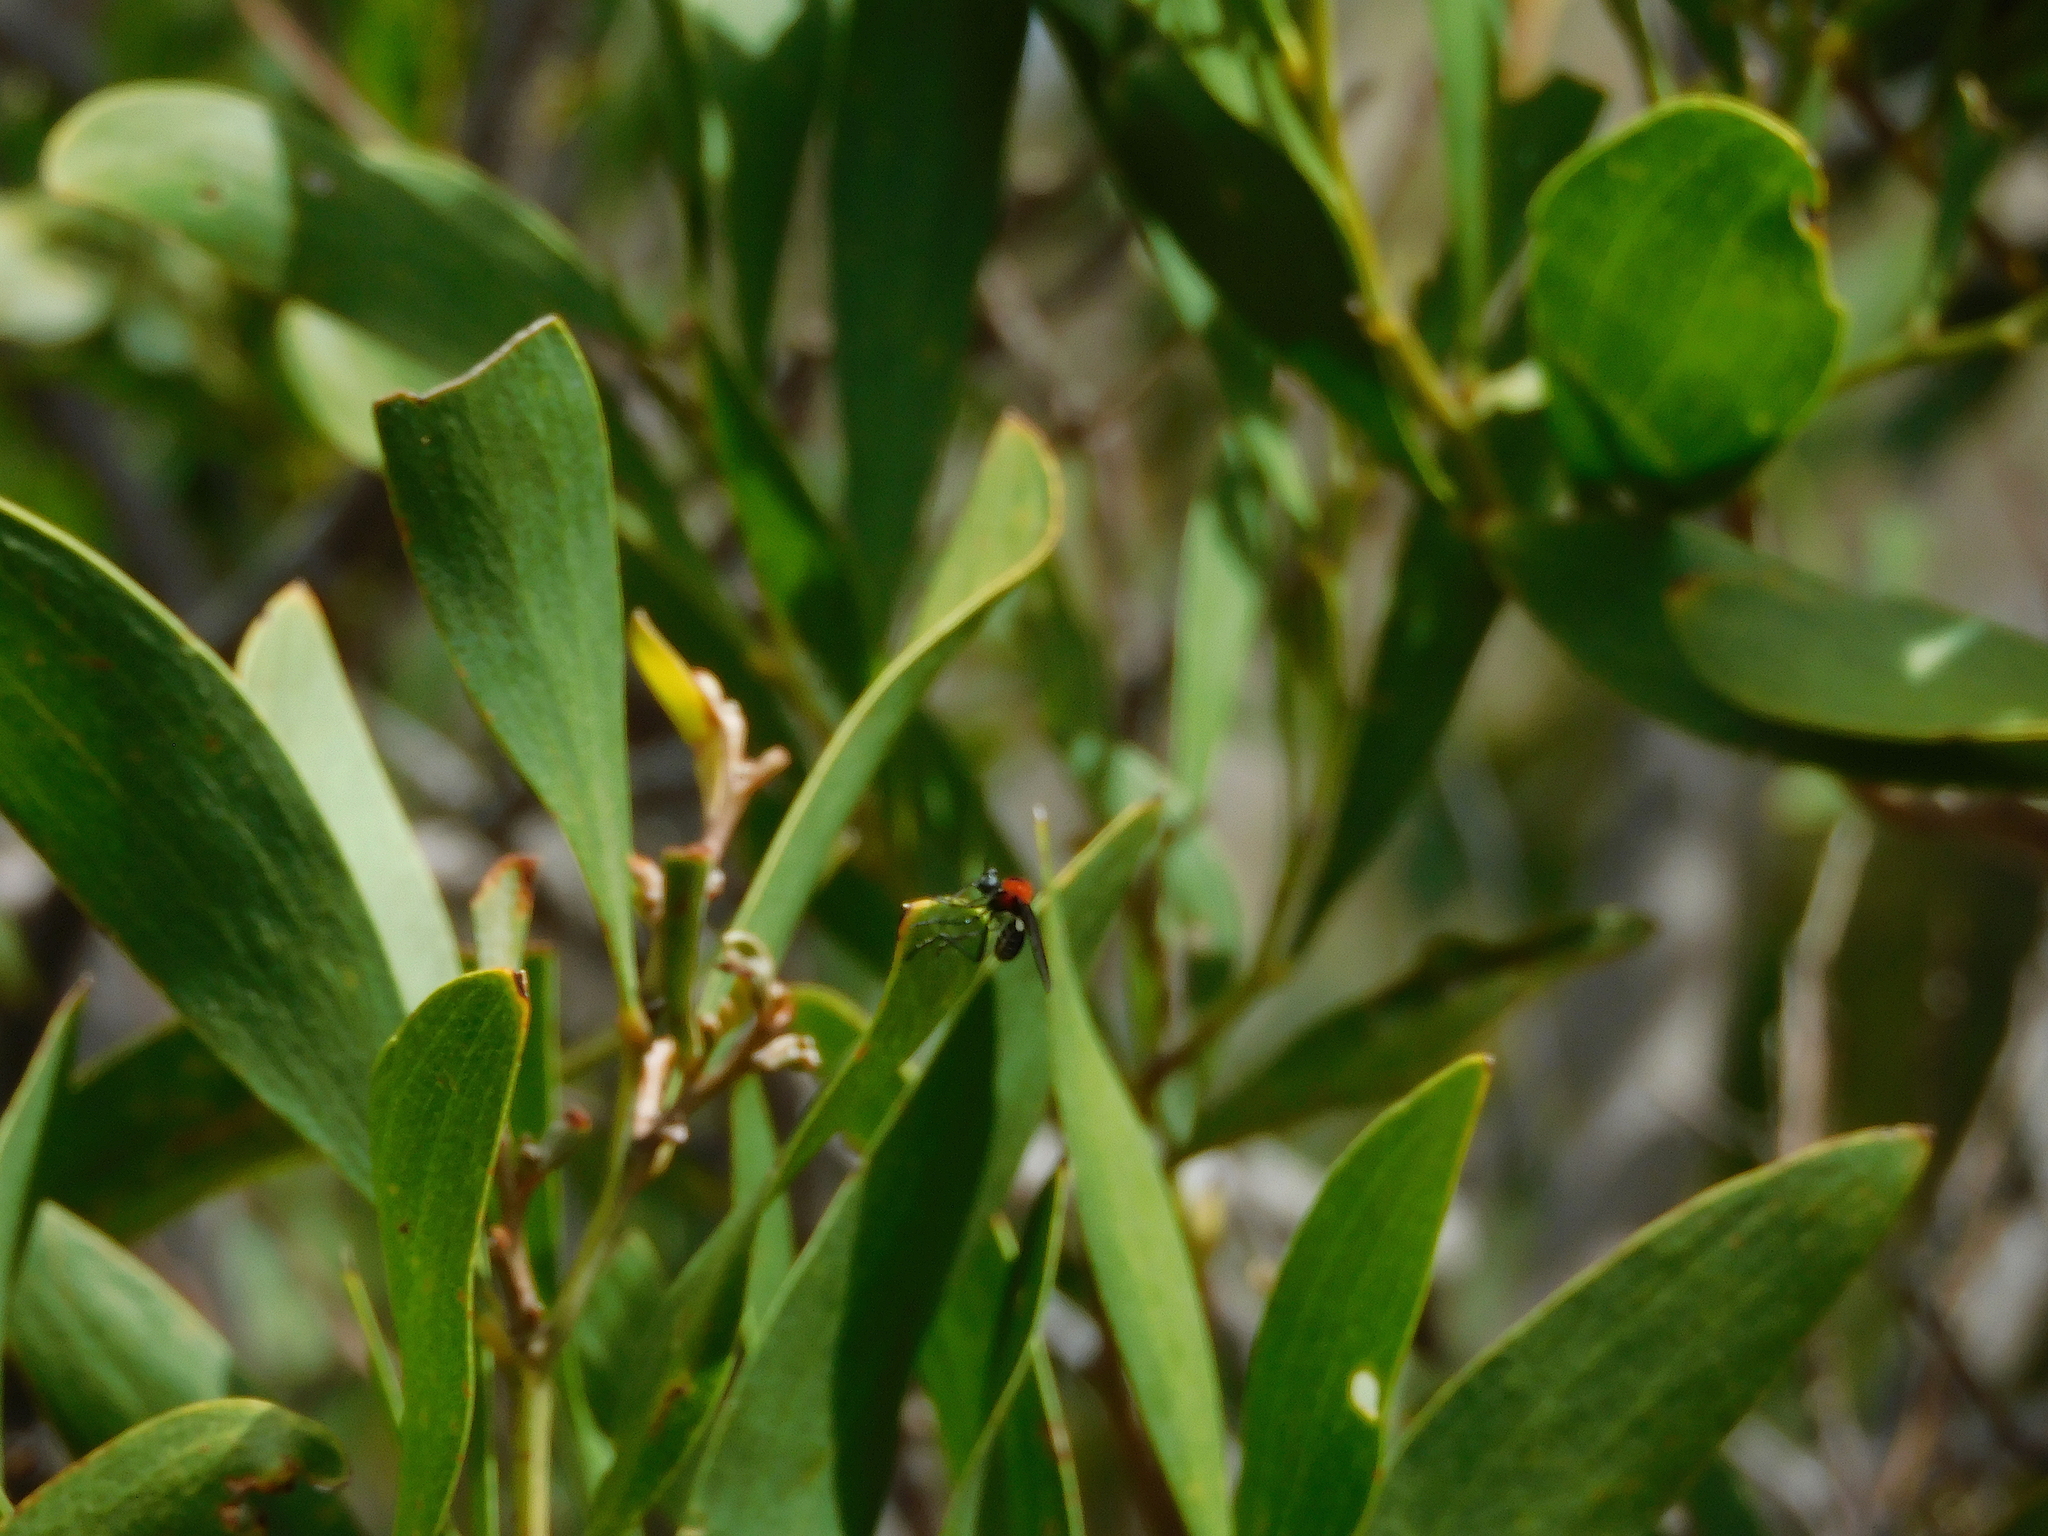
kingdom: Animalia
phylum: Arthropoda
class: Insecta
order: Diptera
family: Asilidae
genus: Cabasa
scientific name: Cabasa pulchella
